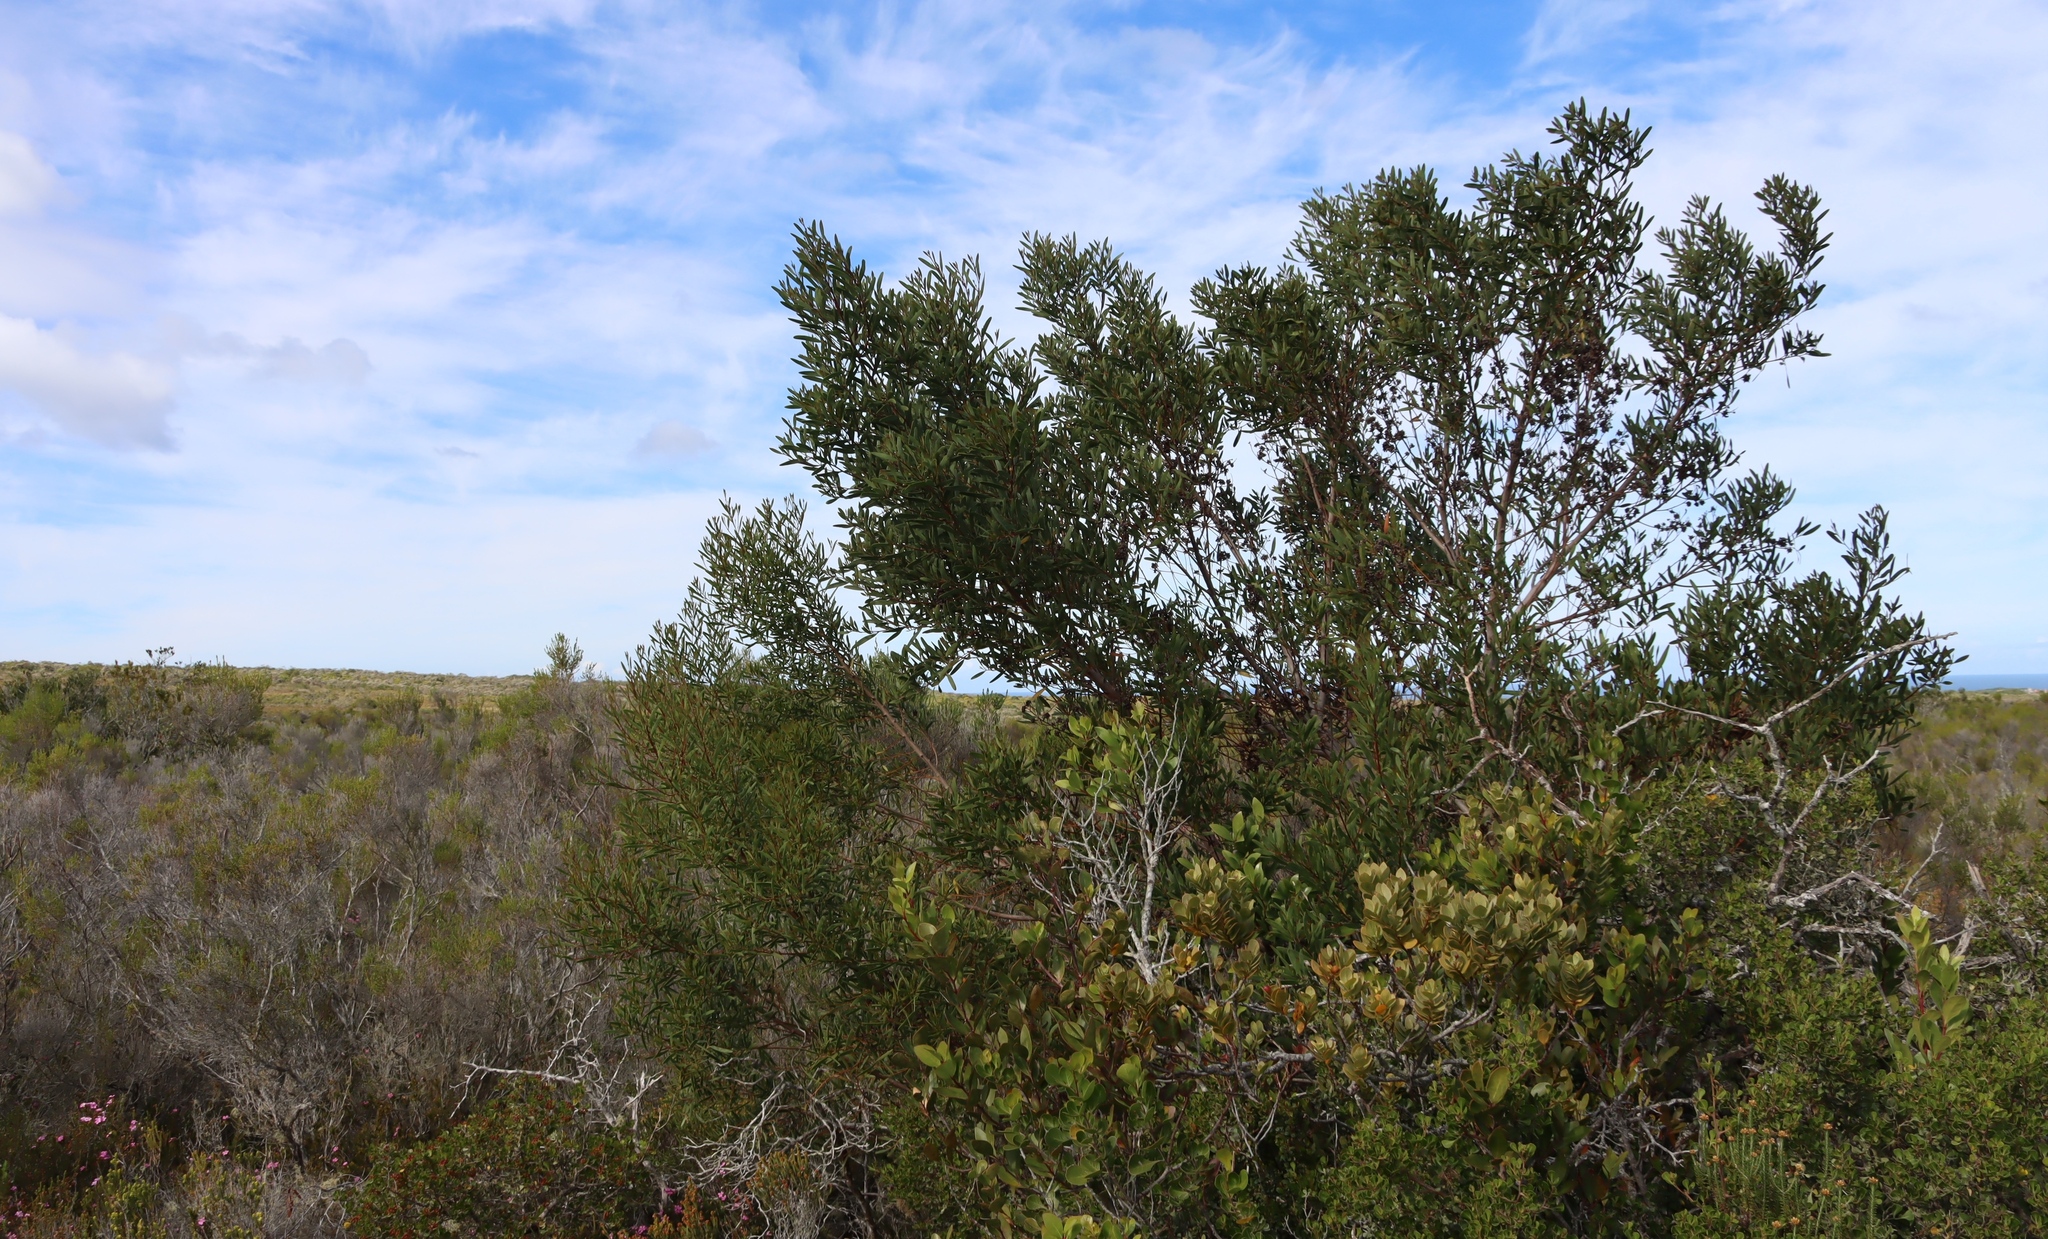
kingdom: Plantae
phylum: Tracheophyta
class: Magnoliopsida
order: Fabales
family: Fabaceae
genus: Acacia
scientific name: Acacia cyclops
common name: Coastal wattle
